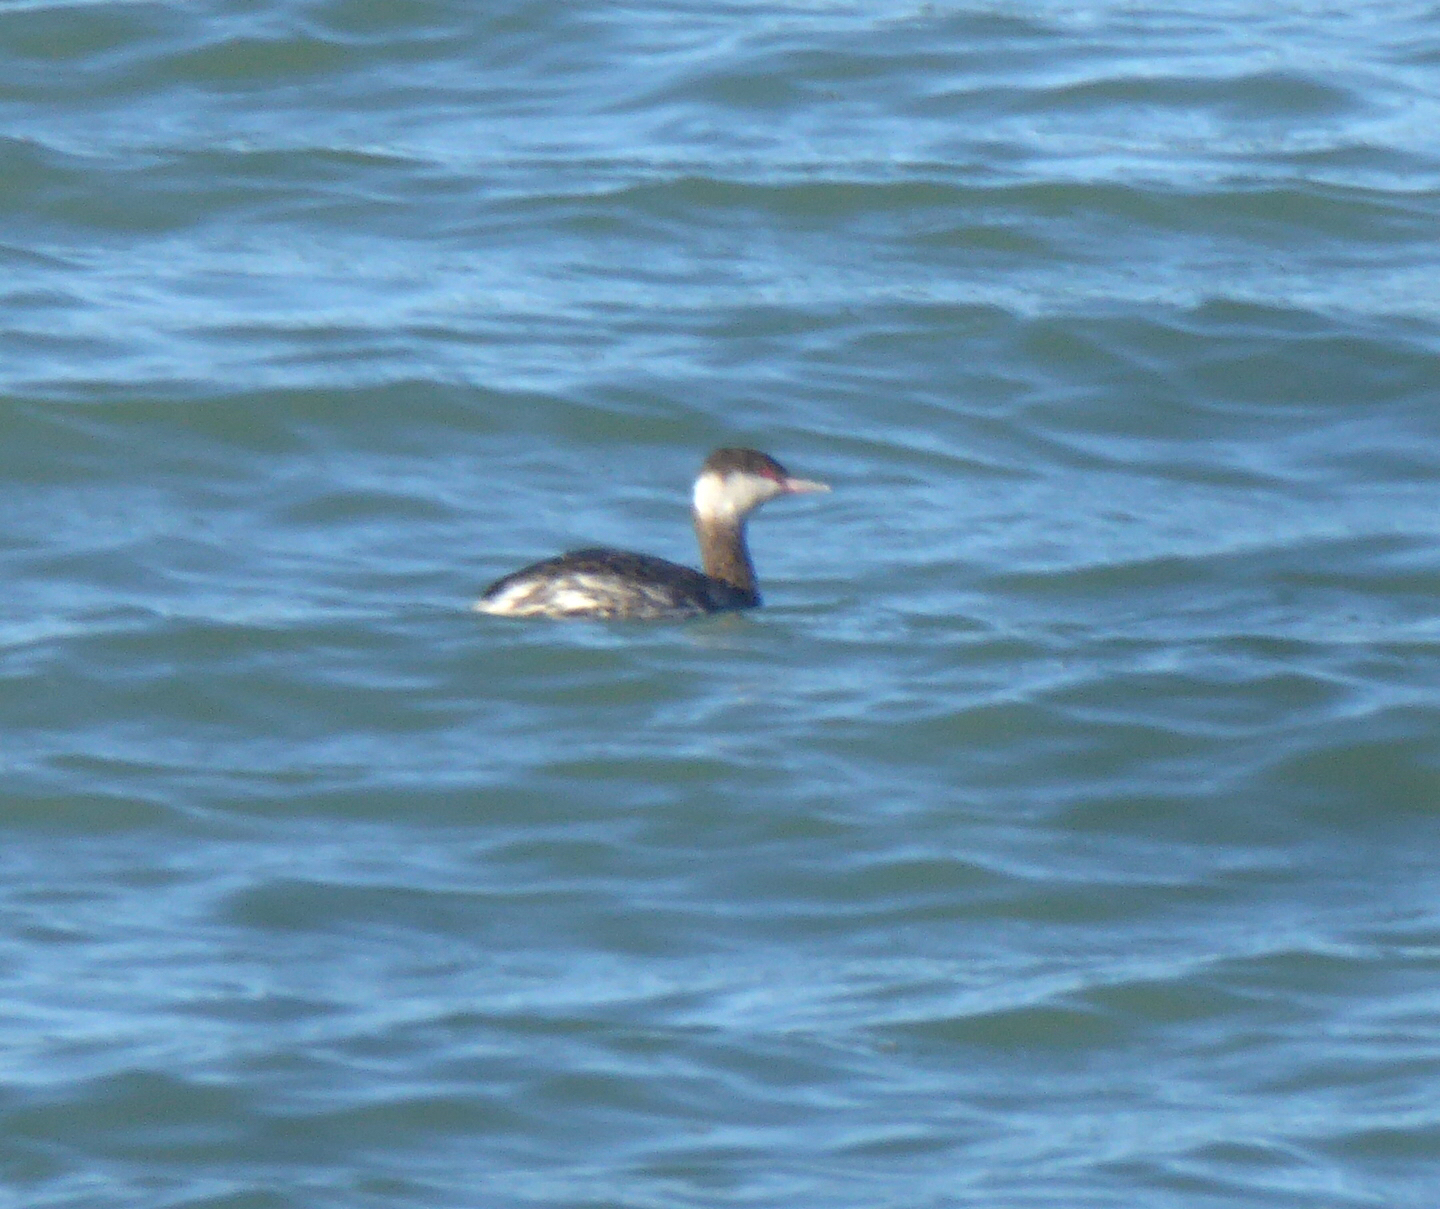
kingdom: Animalia
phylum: Chordata
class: Aves
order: Podicipediformes
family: Podicipedidae
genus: Podiceps
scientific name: Podiceps auritus
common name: Horned grebe
